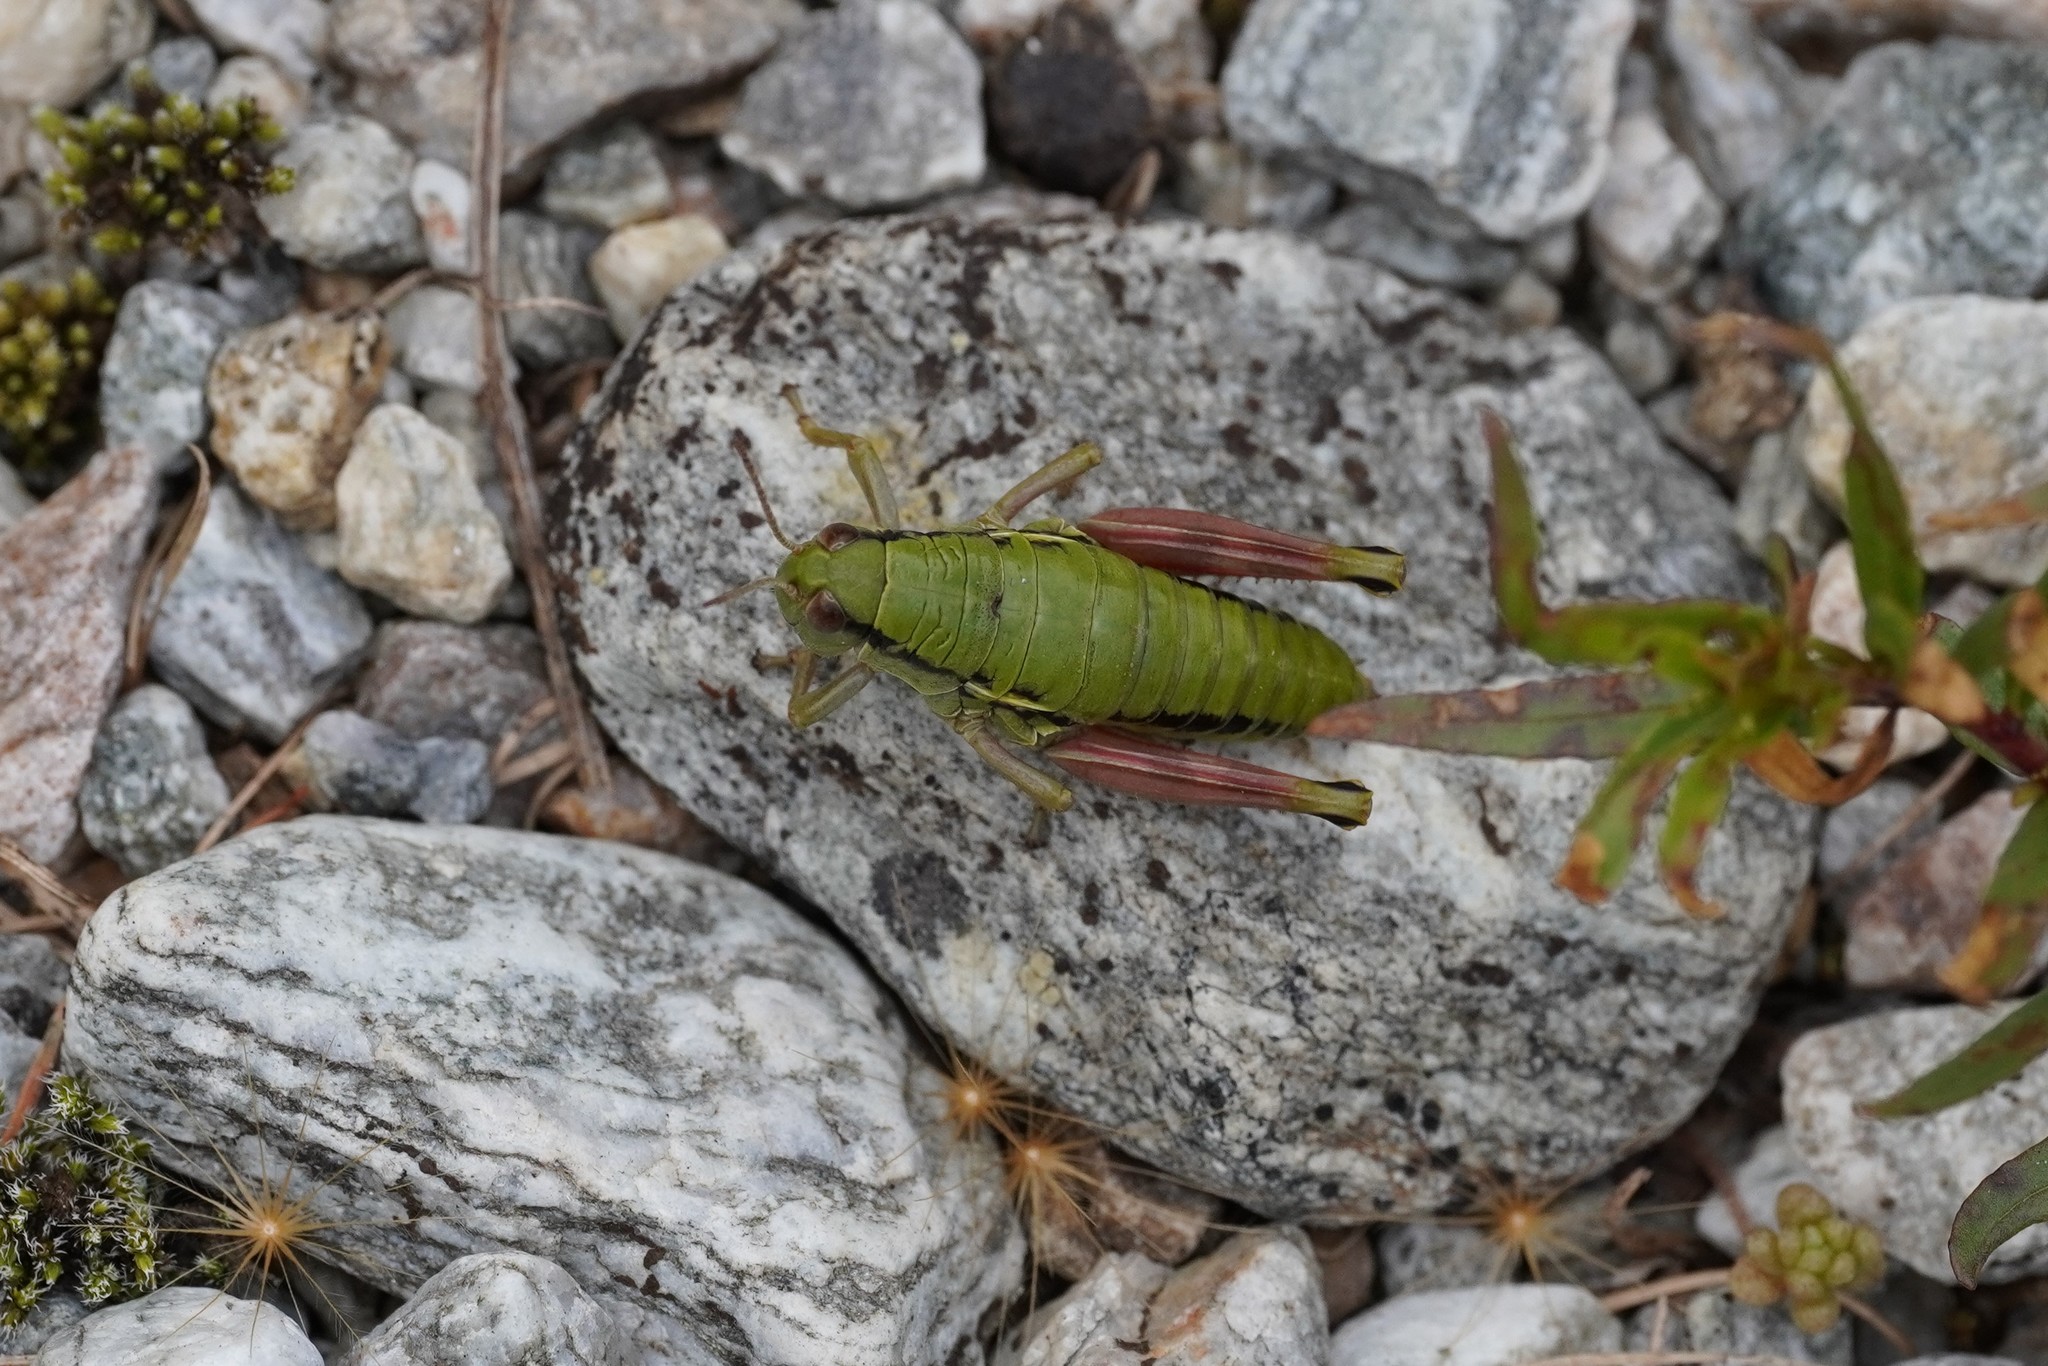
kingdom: Animalia
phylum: Arthropoda
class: Insecta
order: Orthoptera
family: Acrididae
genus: Epipodisma
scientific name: Epipodisma pedemontana
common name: Piedmont mountain grasshopper
